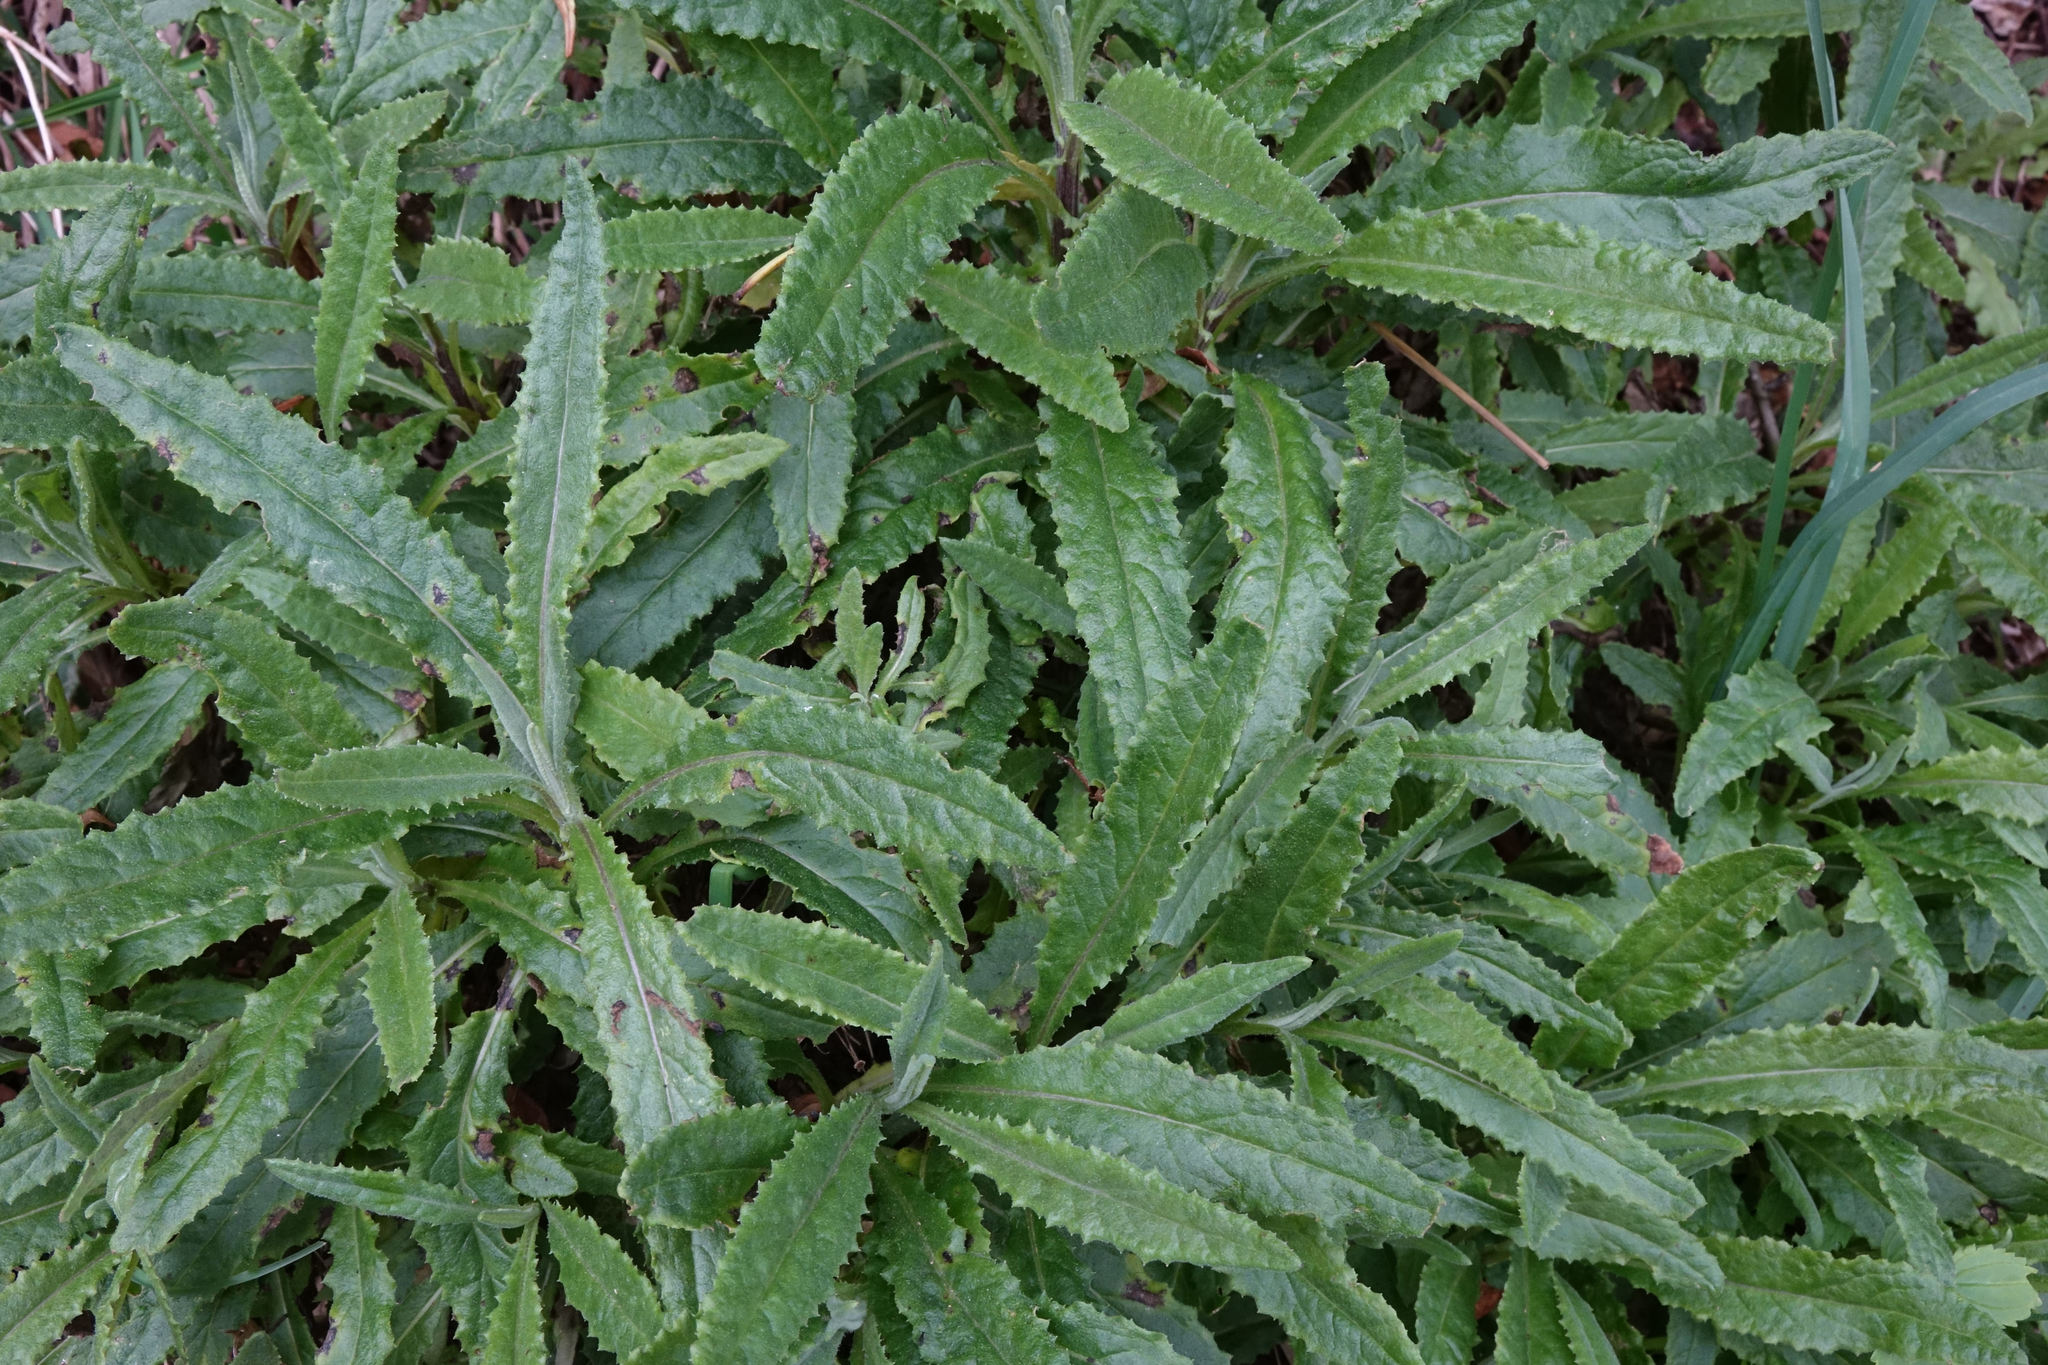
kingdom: Plantae
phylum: Tracheophyta
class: Magnoliopsida
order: Asterales
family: Asteraceae
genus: Senecio
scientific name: Senecio minimus
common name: Toothed fireweed
